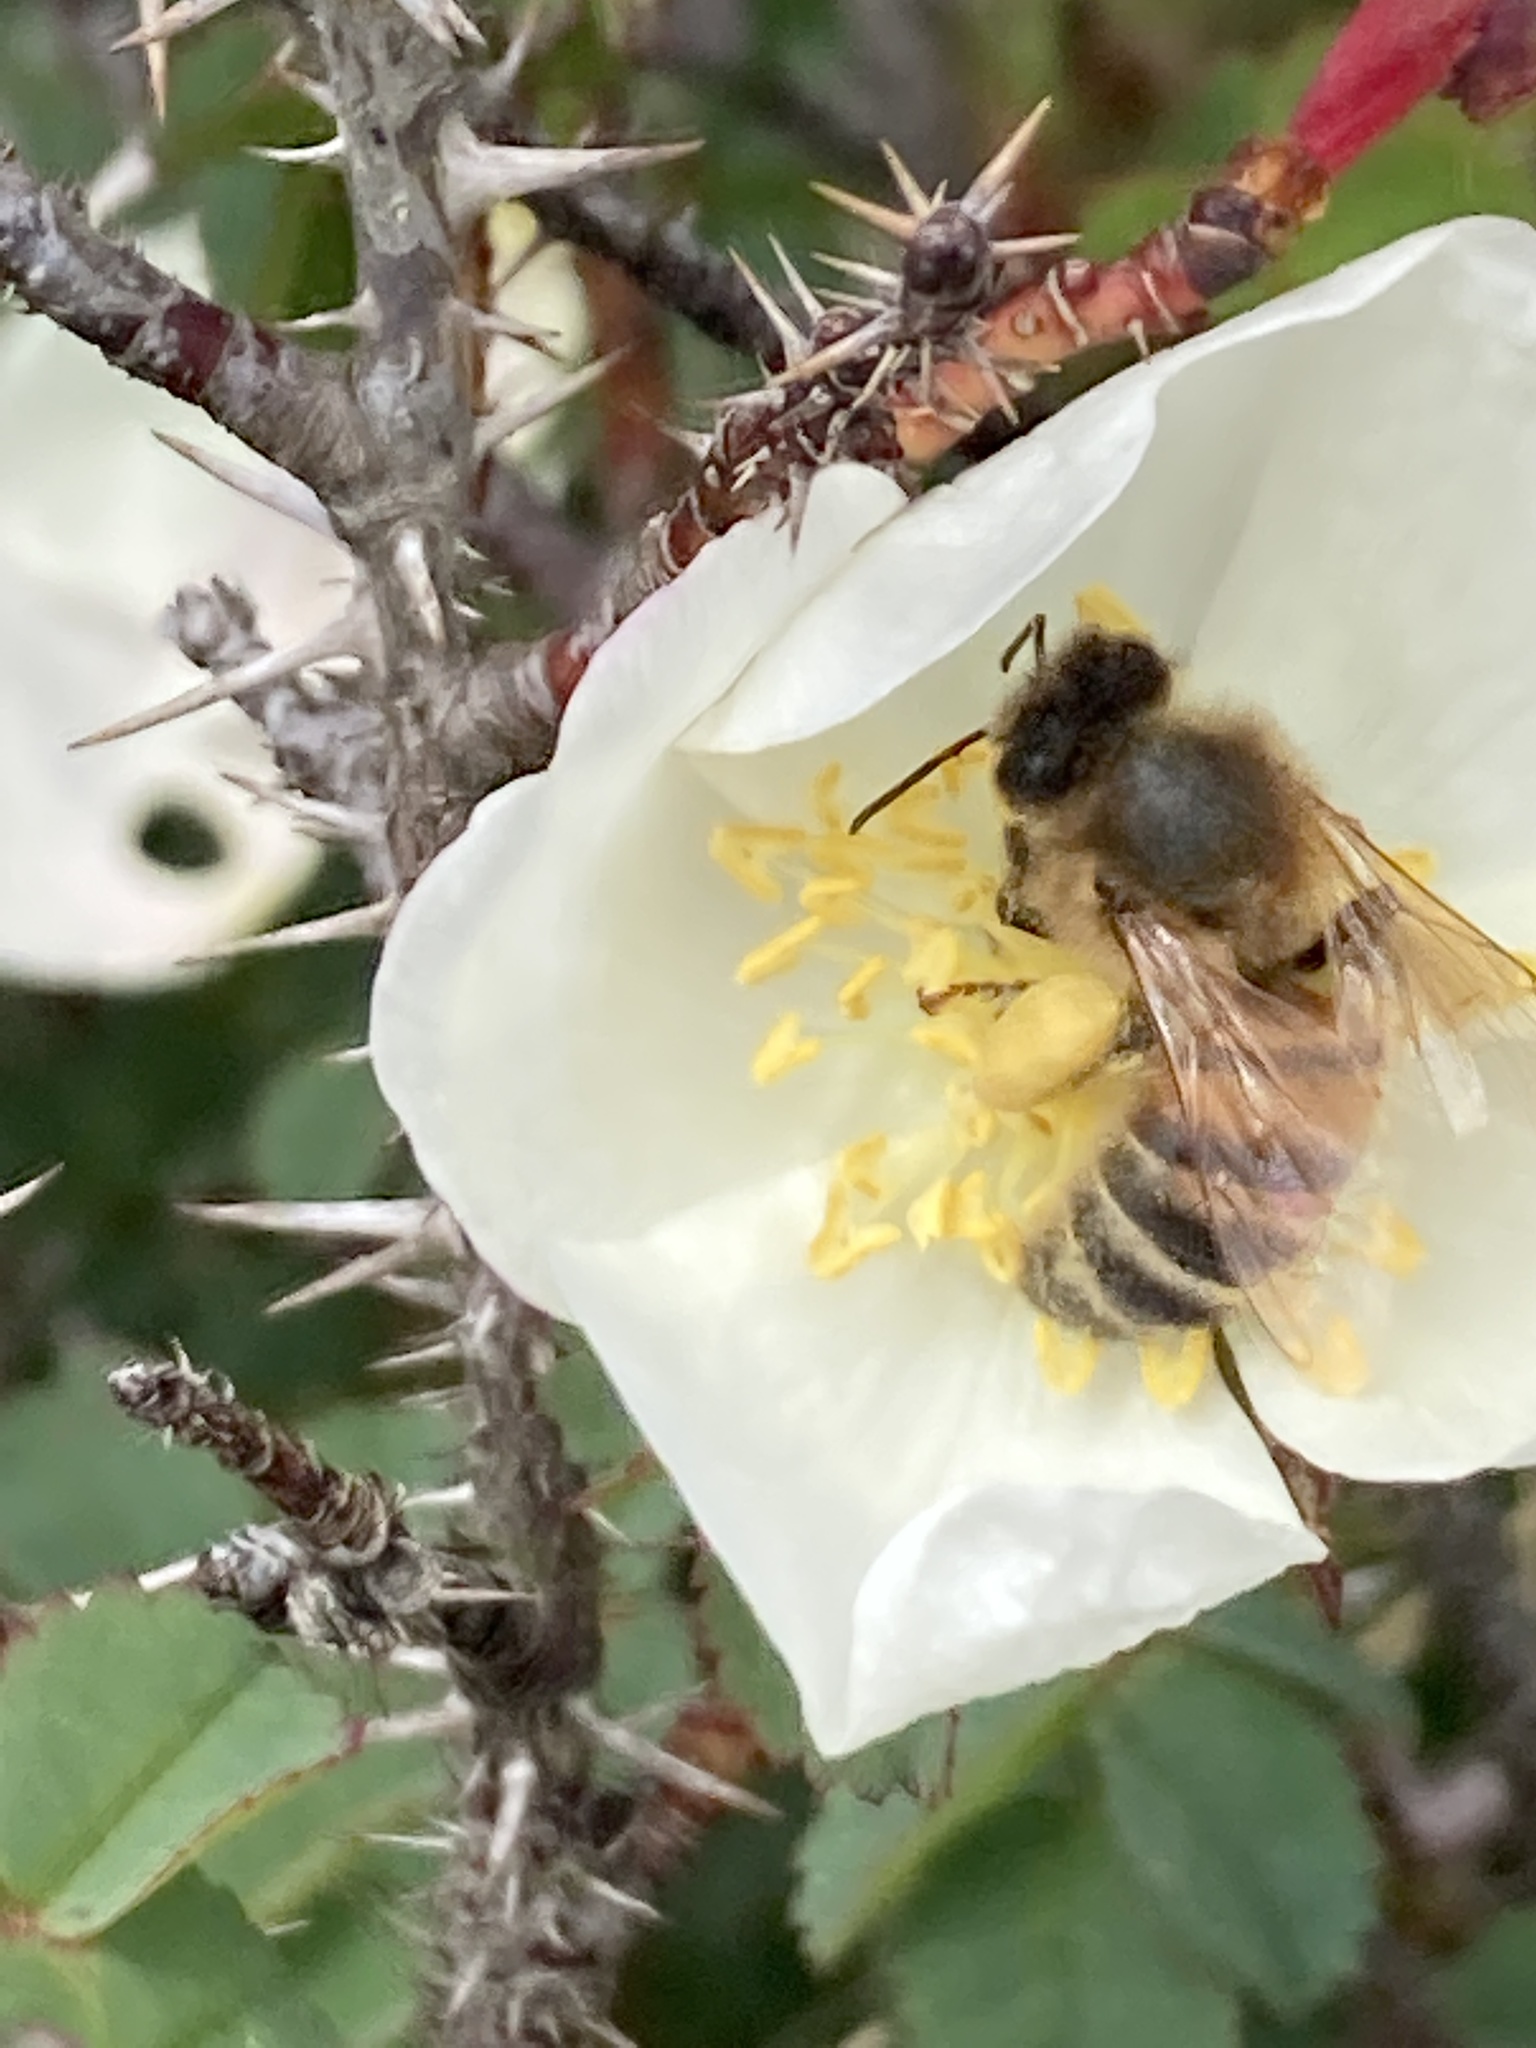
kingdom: Animalia
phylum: Arthropoda
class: Insecta
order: Hymenoptera
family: Apidae
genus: Apis
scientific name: Apis mellifera
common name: Honey bee
